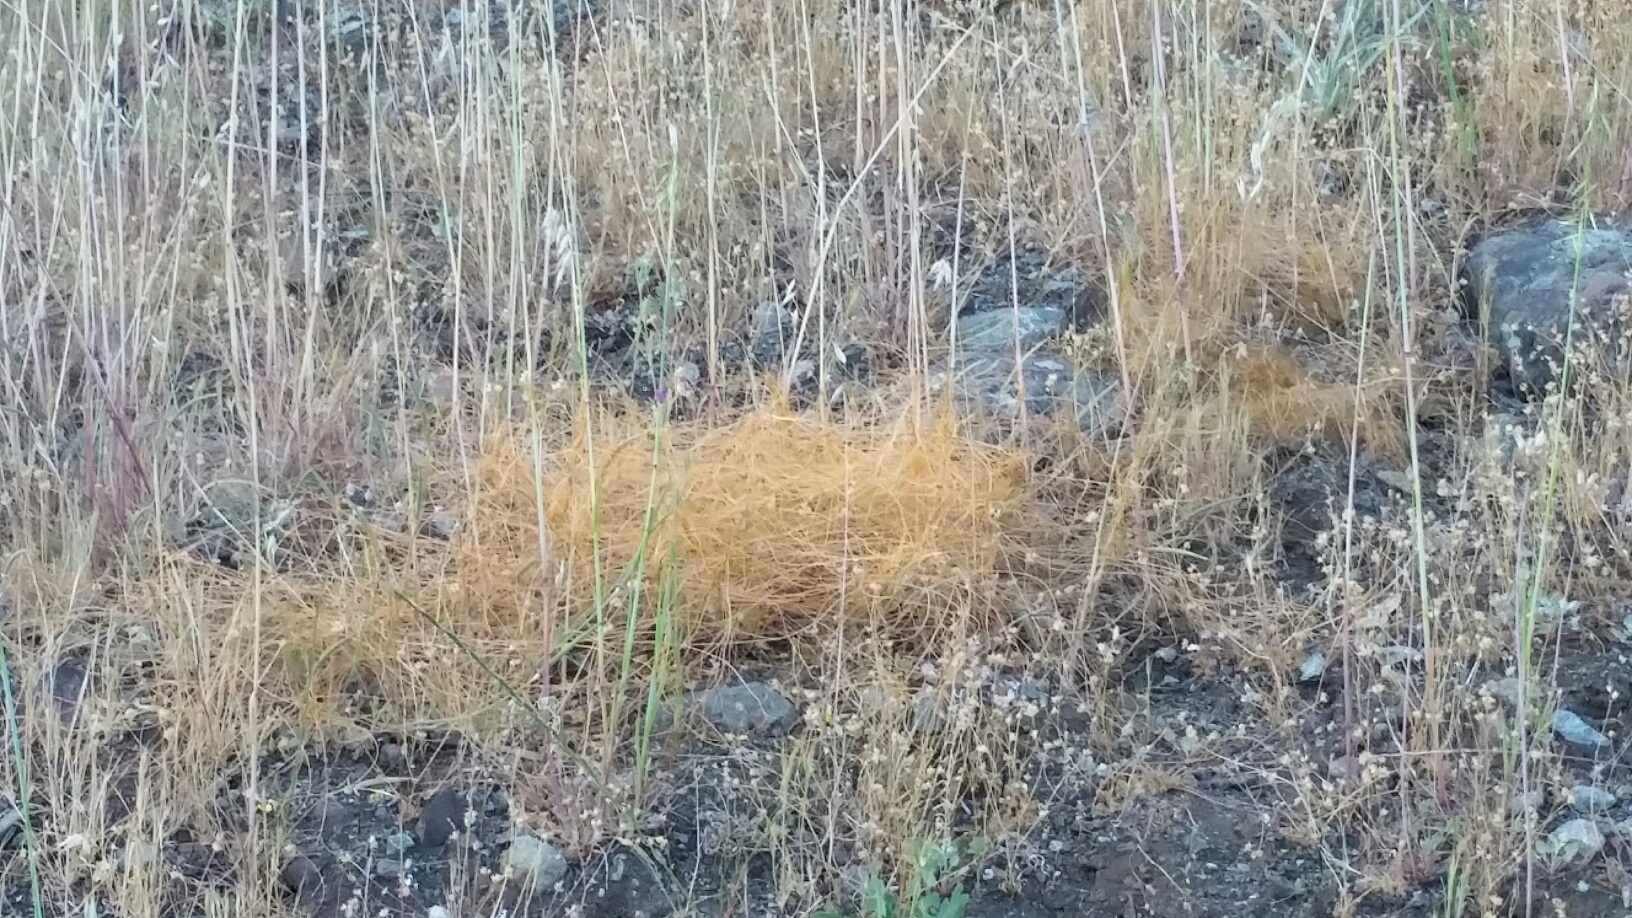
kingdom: Plantae
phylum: Tracheophyta
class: Magnoliopsida
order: Solanales
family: Convolvulaceae
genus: Cuscuta
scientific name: Cuscuta californica
